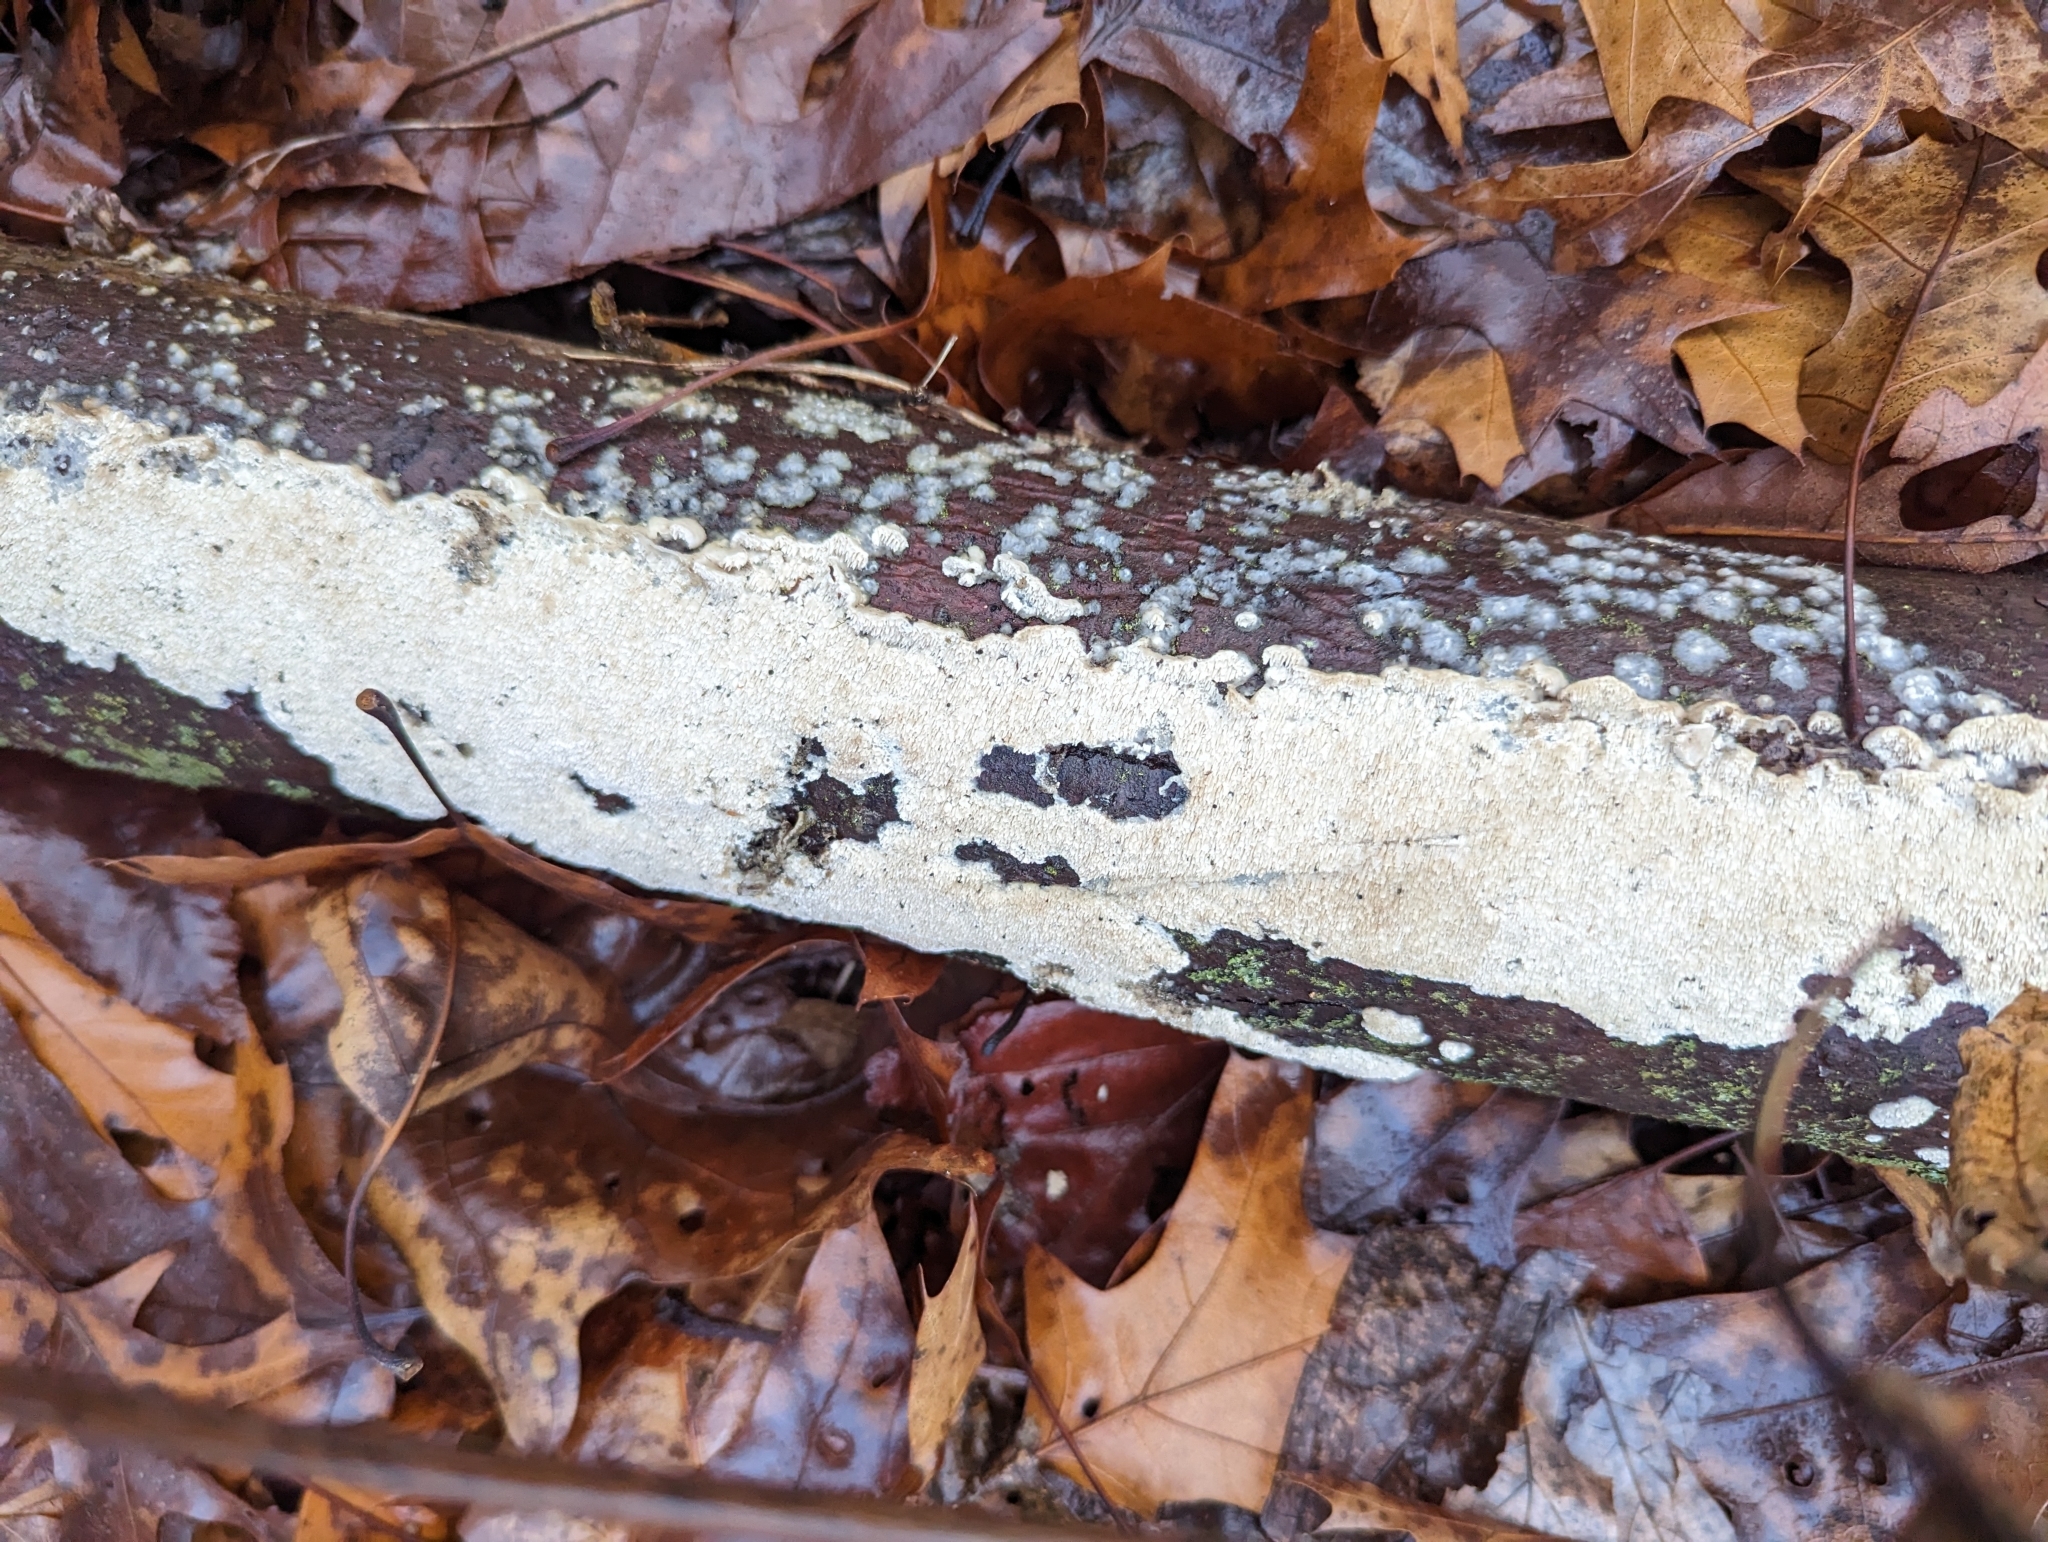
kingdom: Fungi
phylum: Basidiomycota
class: Agaricomycetes
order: Polyporales
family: Irpicaceae
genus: Irpex
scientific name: Irpex lacteus
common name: Milk-white toothed polypore
